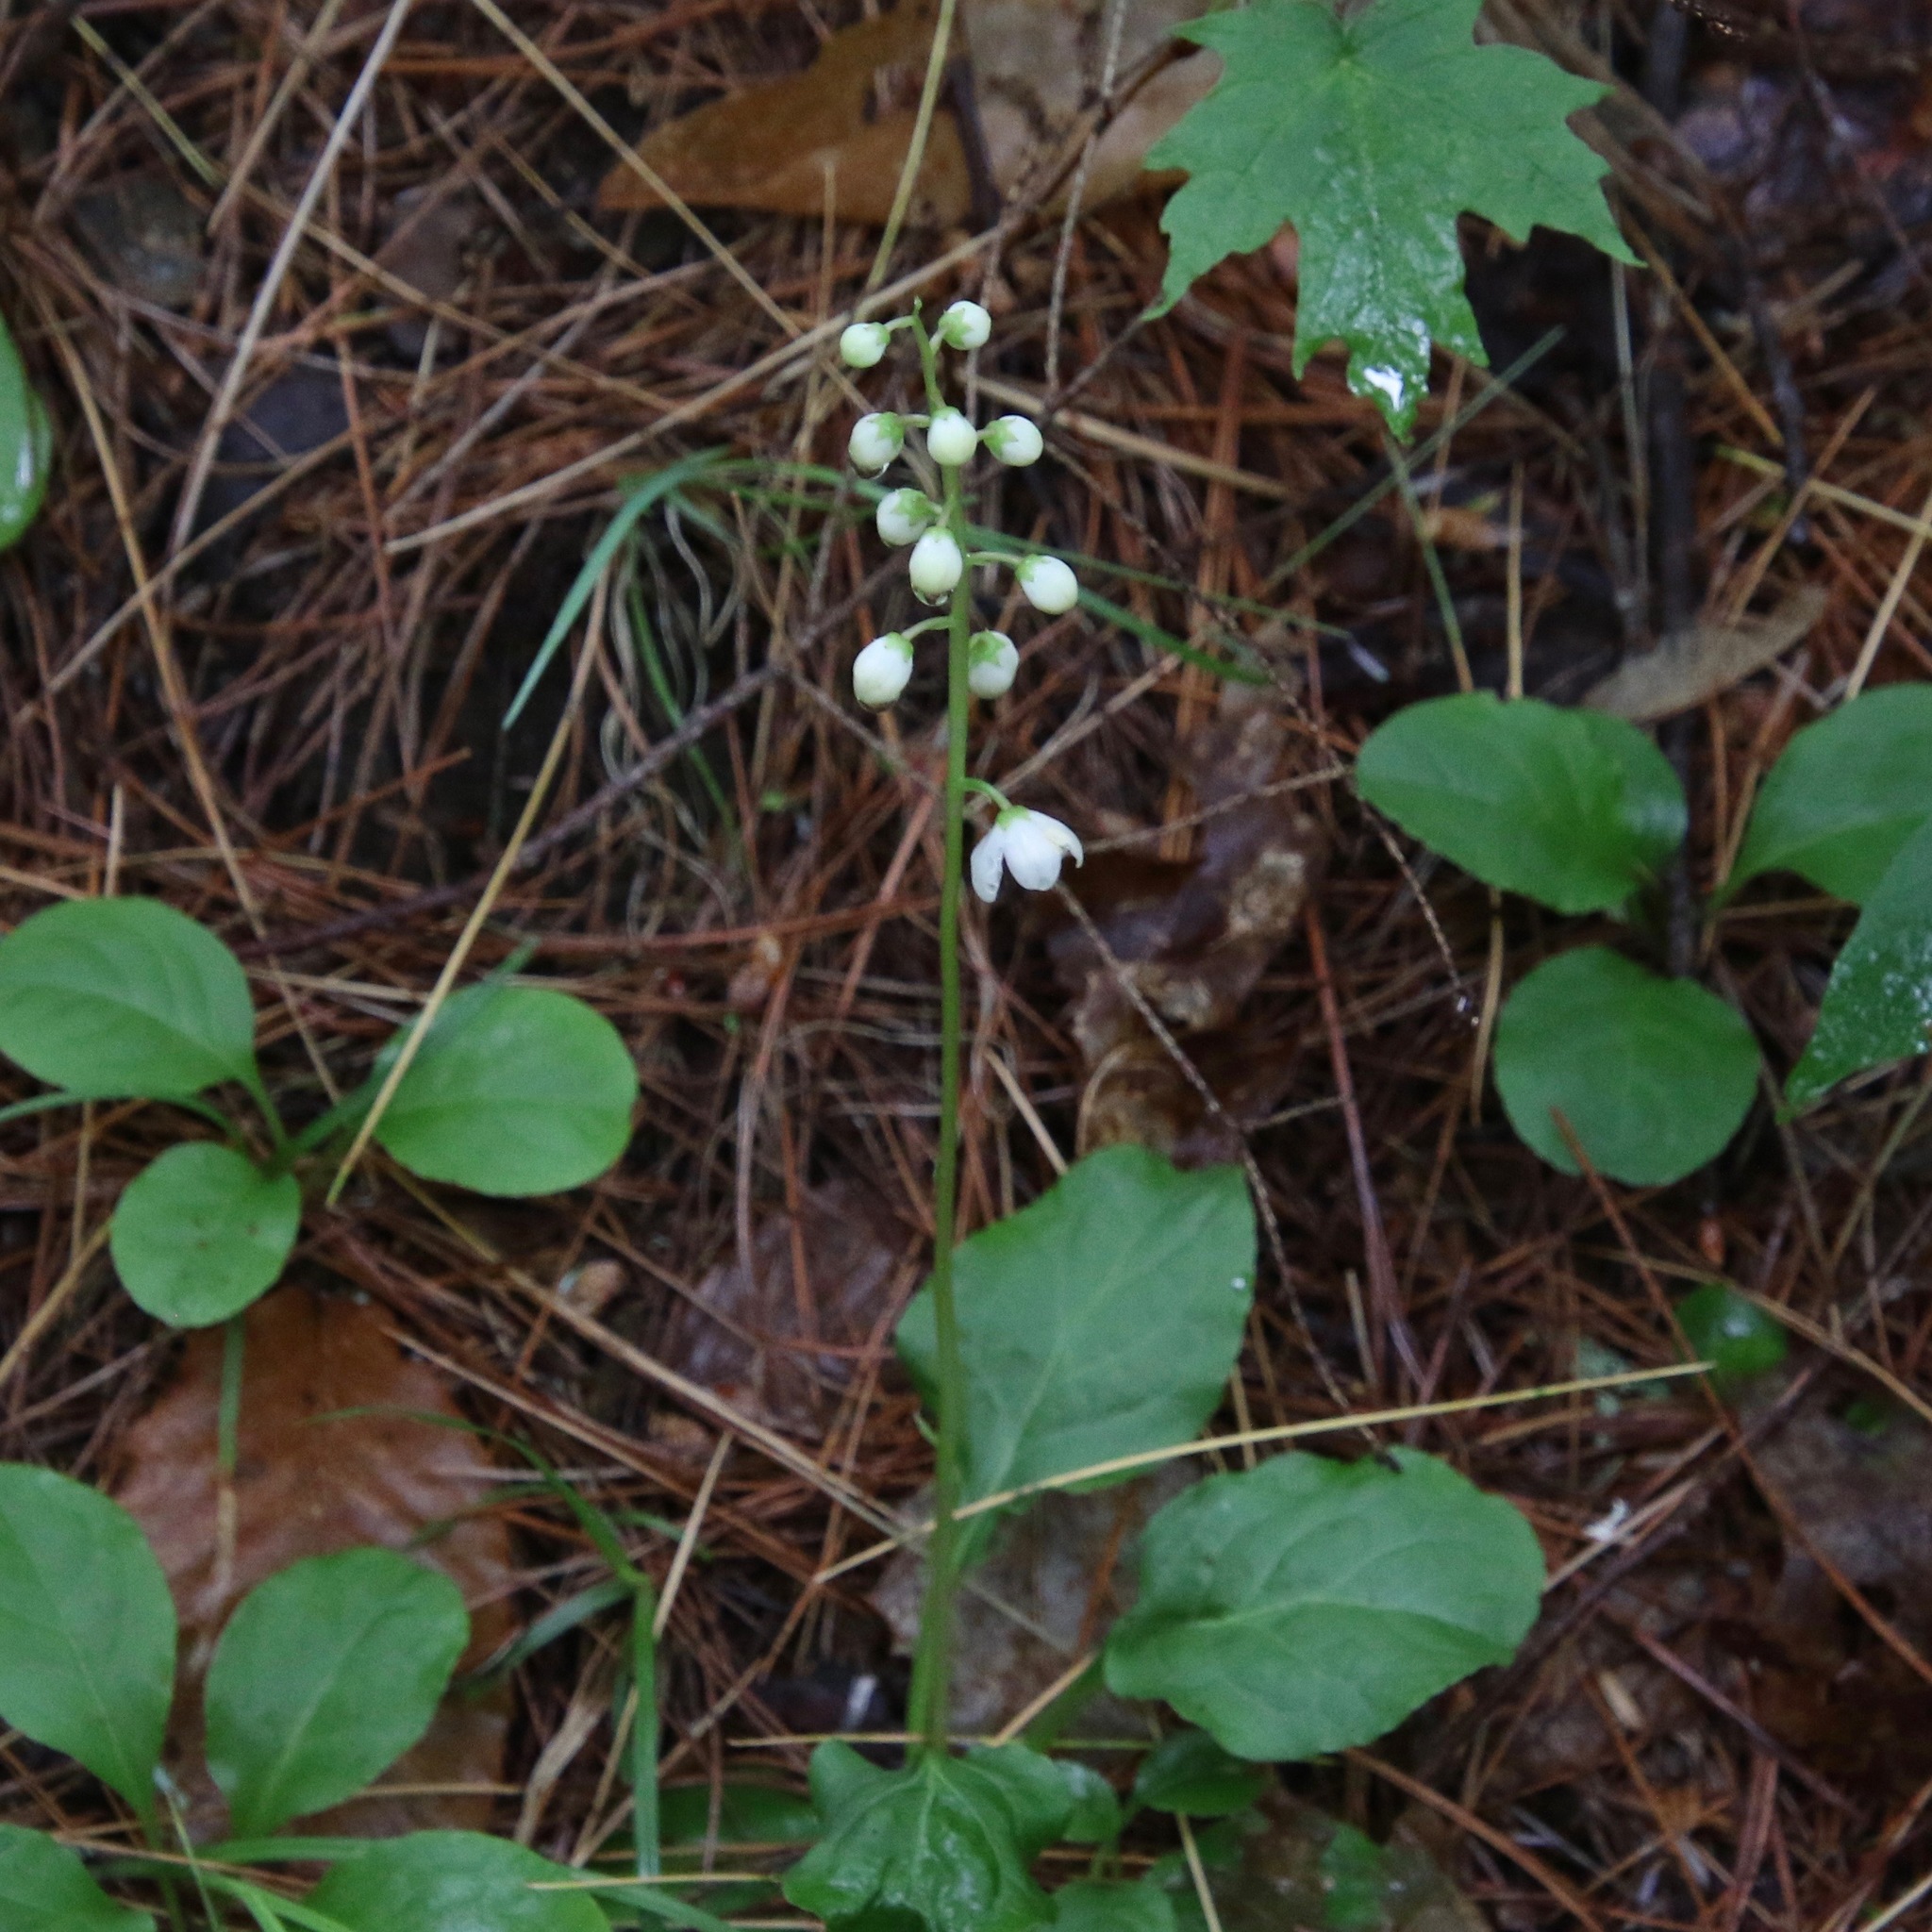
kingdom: Plantae
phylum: Tracheophyta
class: Magnoliopsida
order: Ericales
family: Ericaceae
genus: Pyrola
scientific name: Pyrola elliptica
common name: Shinleaf
